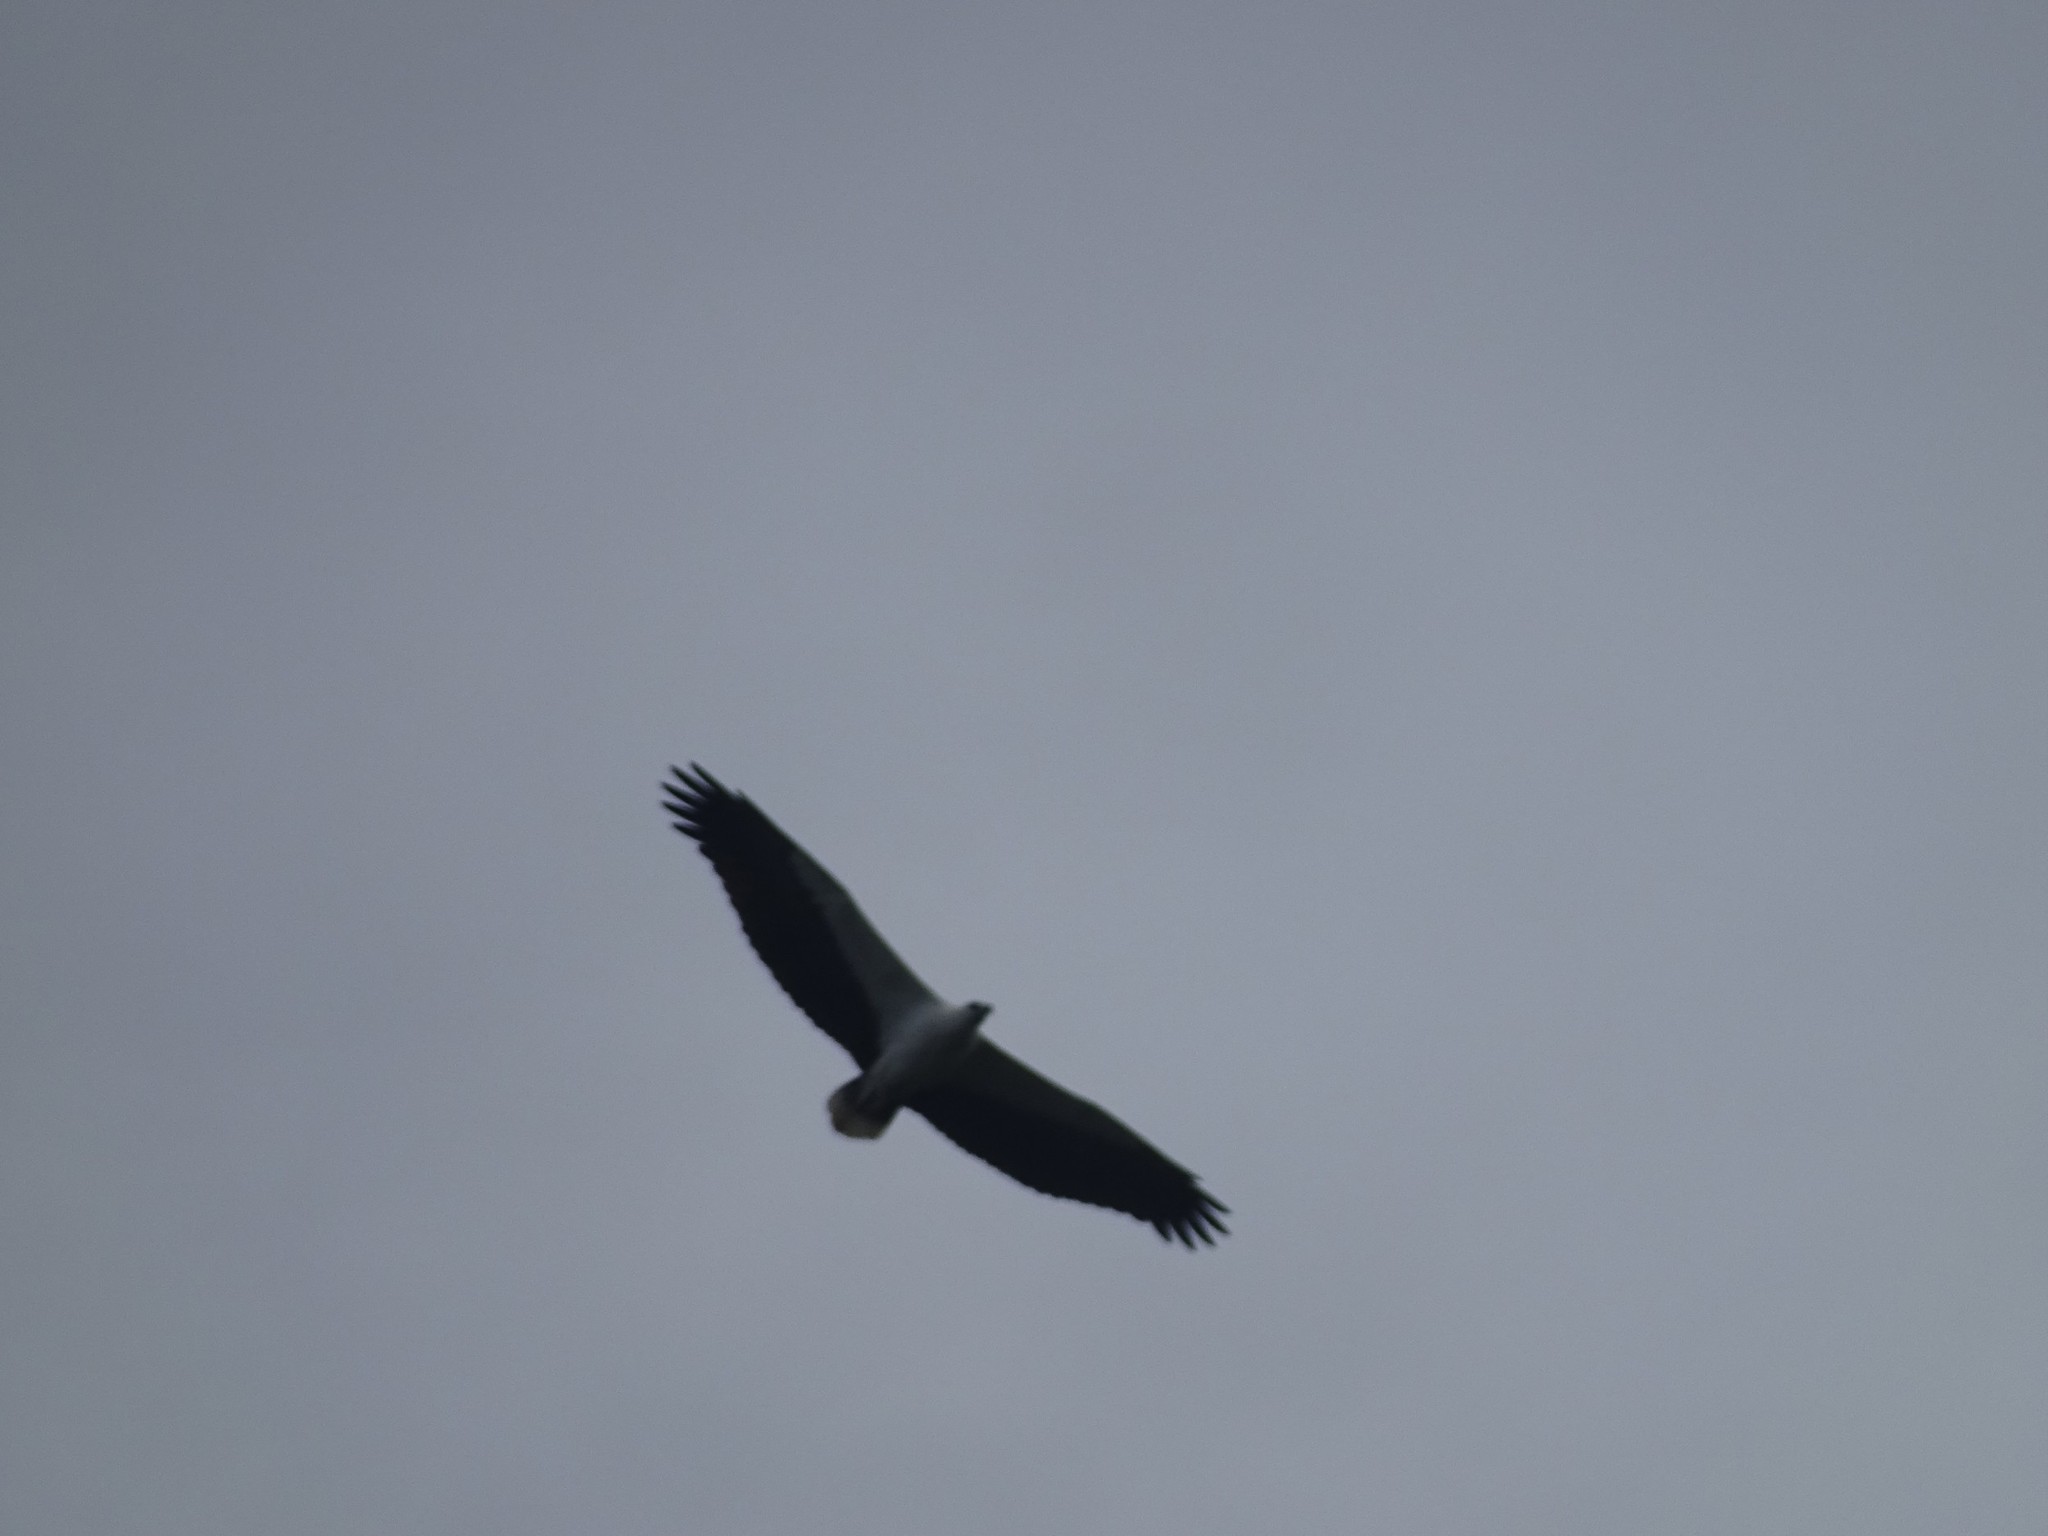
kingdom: Animalia
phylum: Chordata
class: Aves
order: Accipitriformes
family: Accipitridae
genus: Haliaeetus
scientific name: Haliaeetus leucogaster
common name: White-bellied sea eagle
